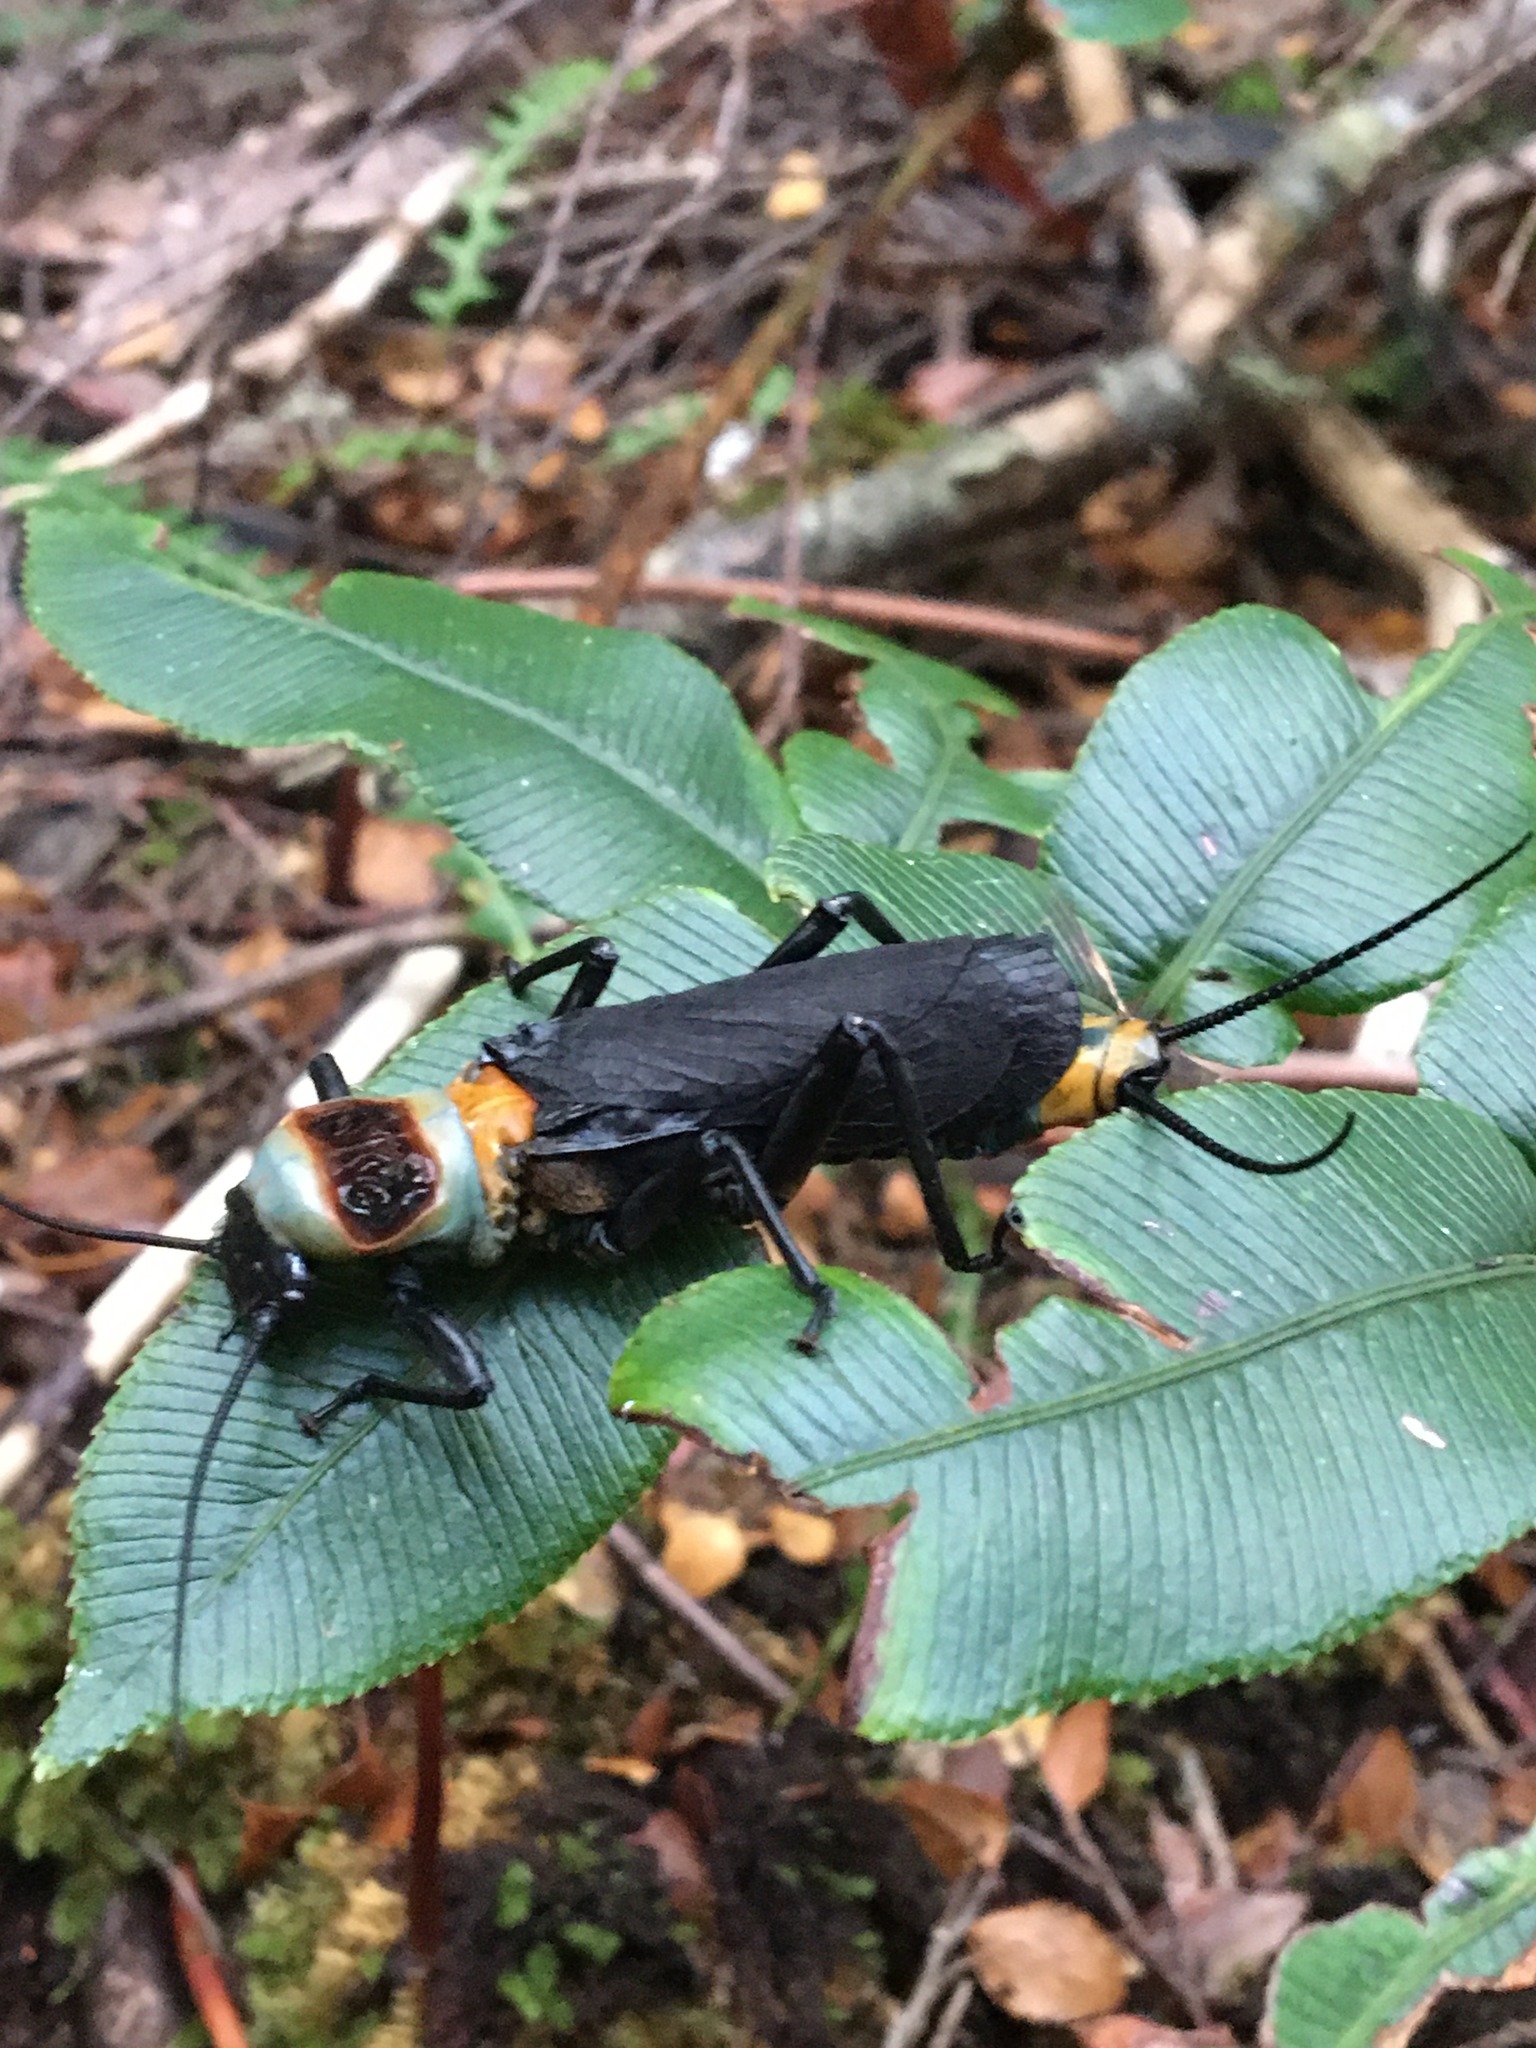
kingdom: Animalia
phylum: Arthropoda
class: Insecta
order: Plecoptera
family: Eustheniidae
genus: Thaumatoperla
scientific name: Thaumatoperla robusta
